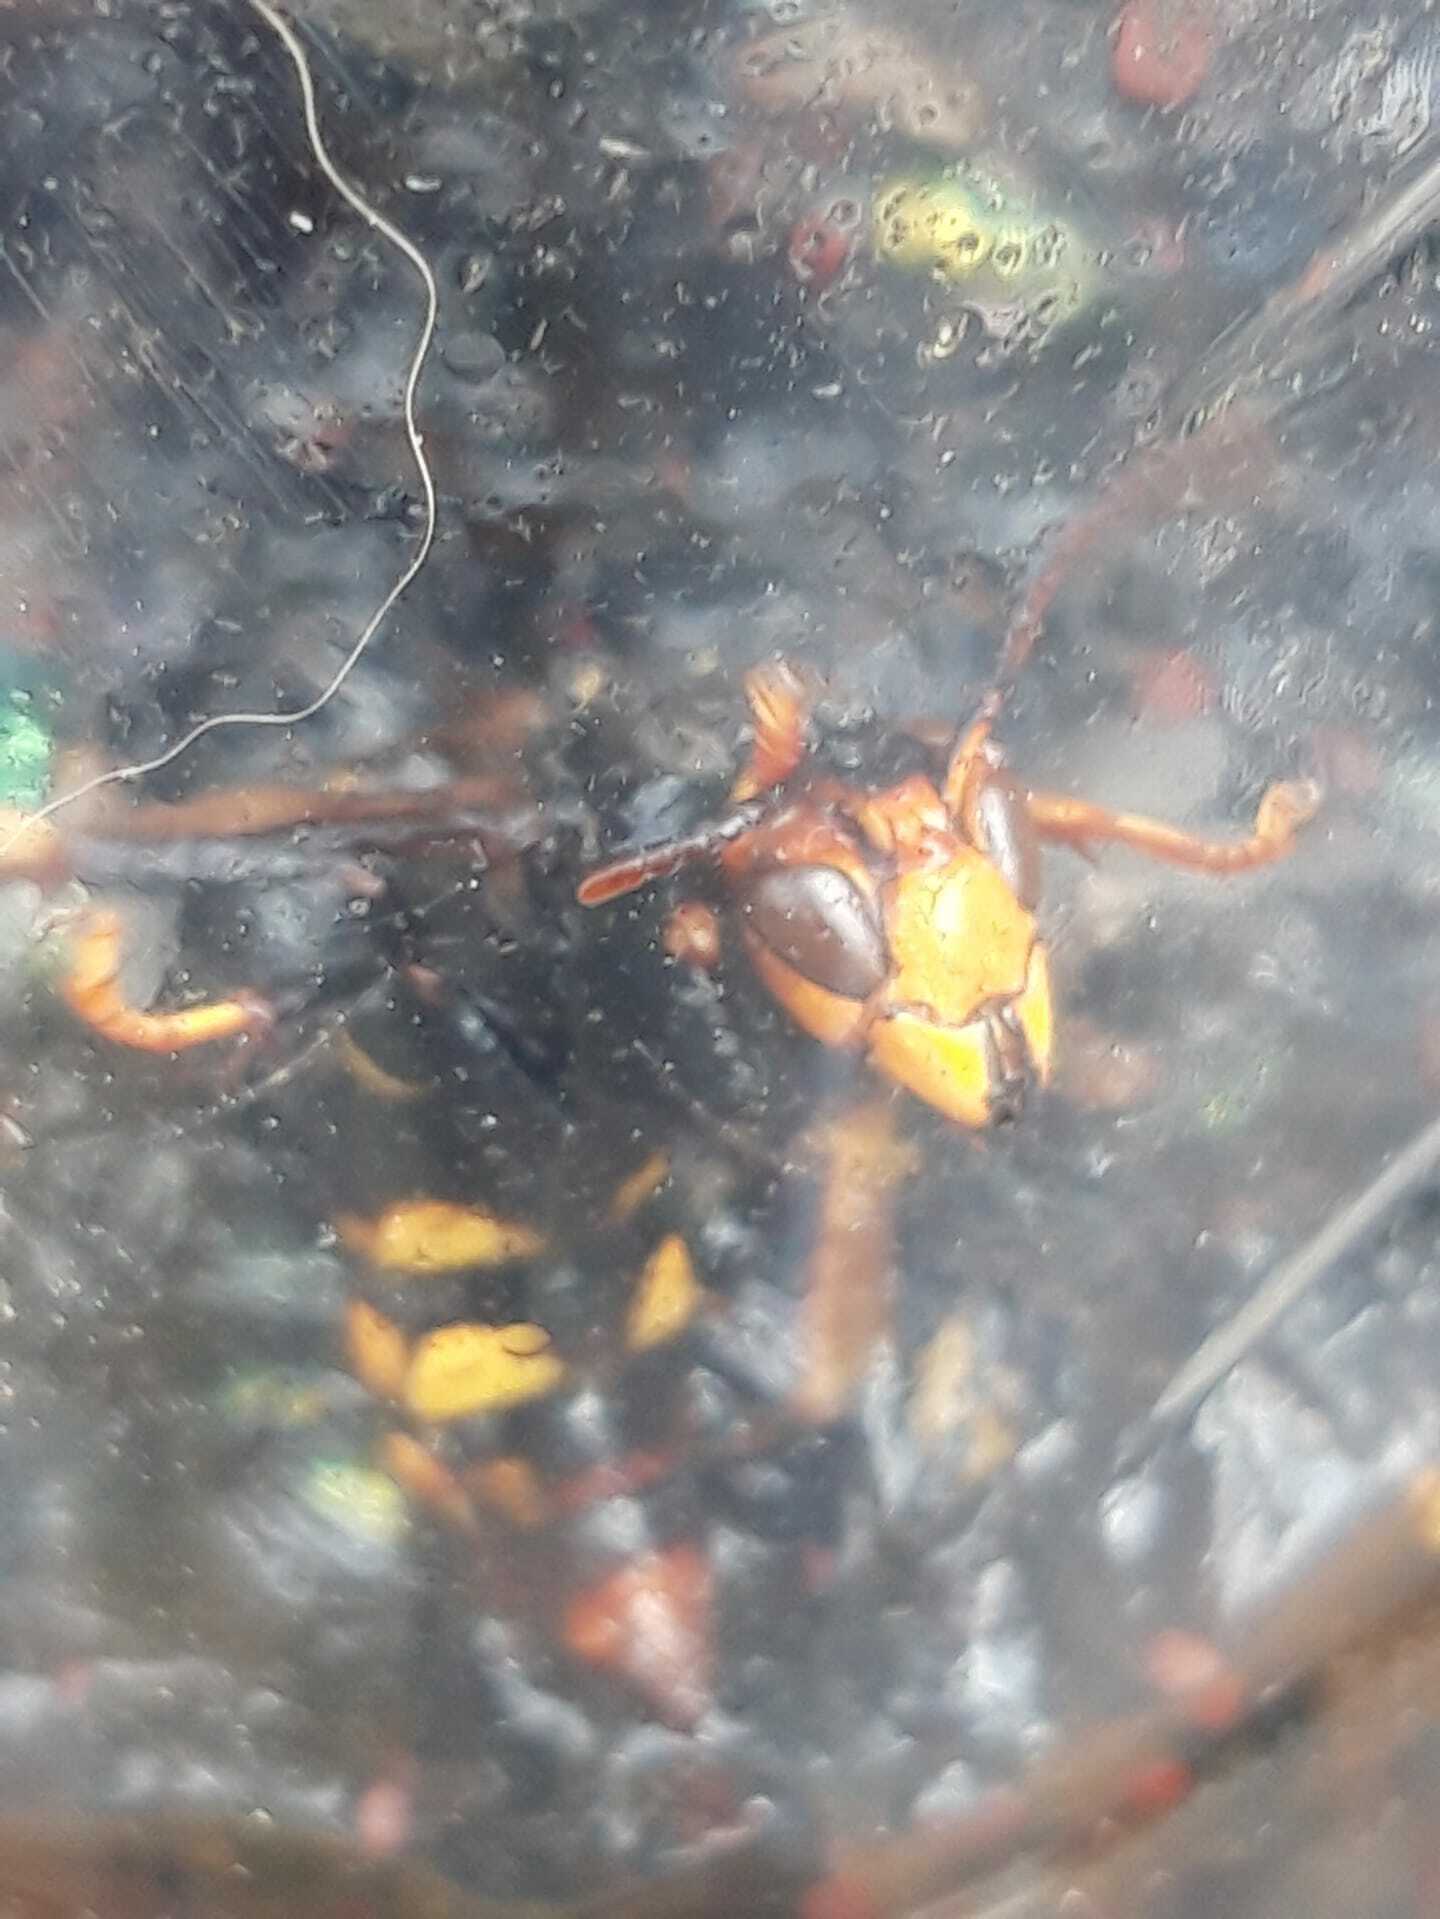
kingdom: Animalia
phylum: Arthropoda
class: Insecta
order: Hymenoptera
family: Vespidae
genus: Vespa
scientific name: Vespa velutina
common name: Asian hornet
